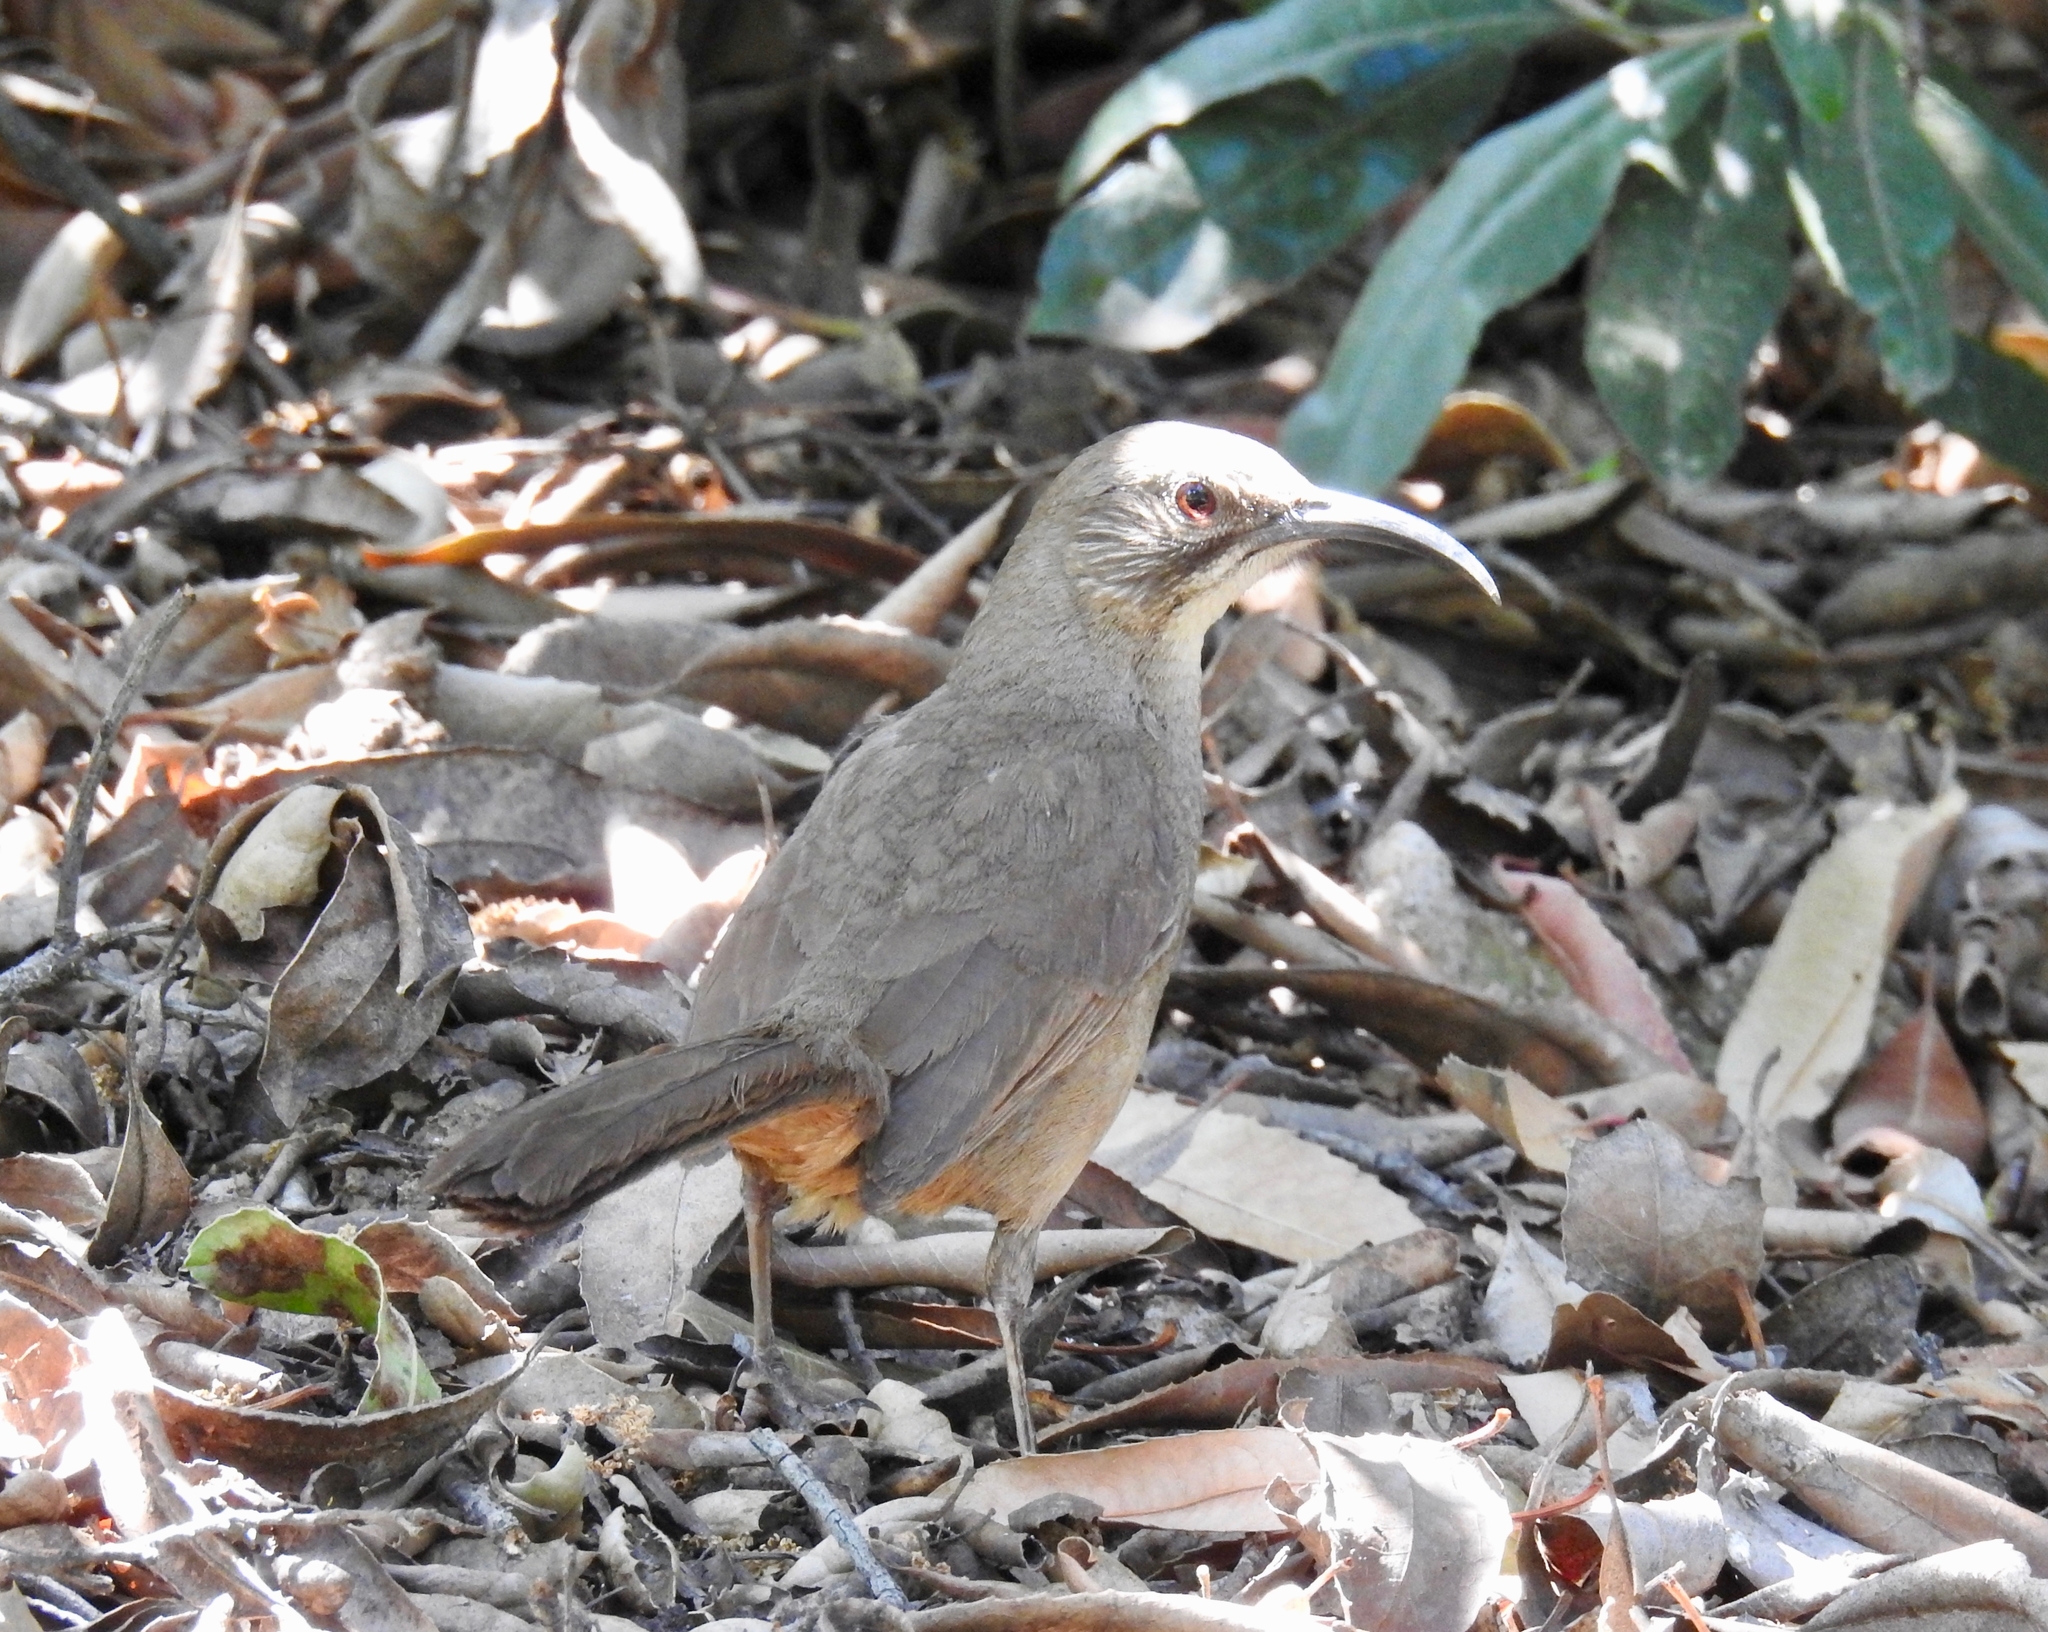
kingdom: Animalia
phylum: Chordata
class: Aves
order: Passeriformes
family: Mimidae
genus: Toxostoma
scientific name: Toxostoma redivivum
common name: California thrasher
